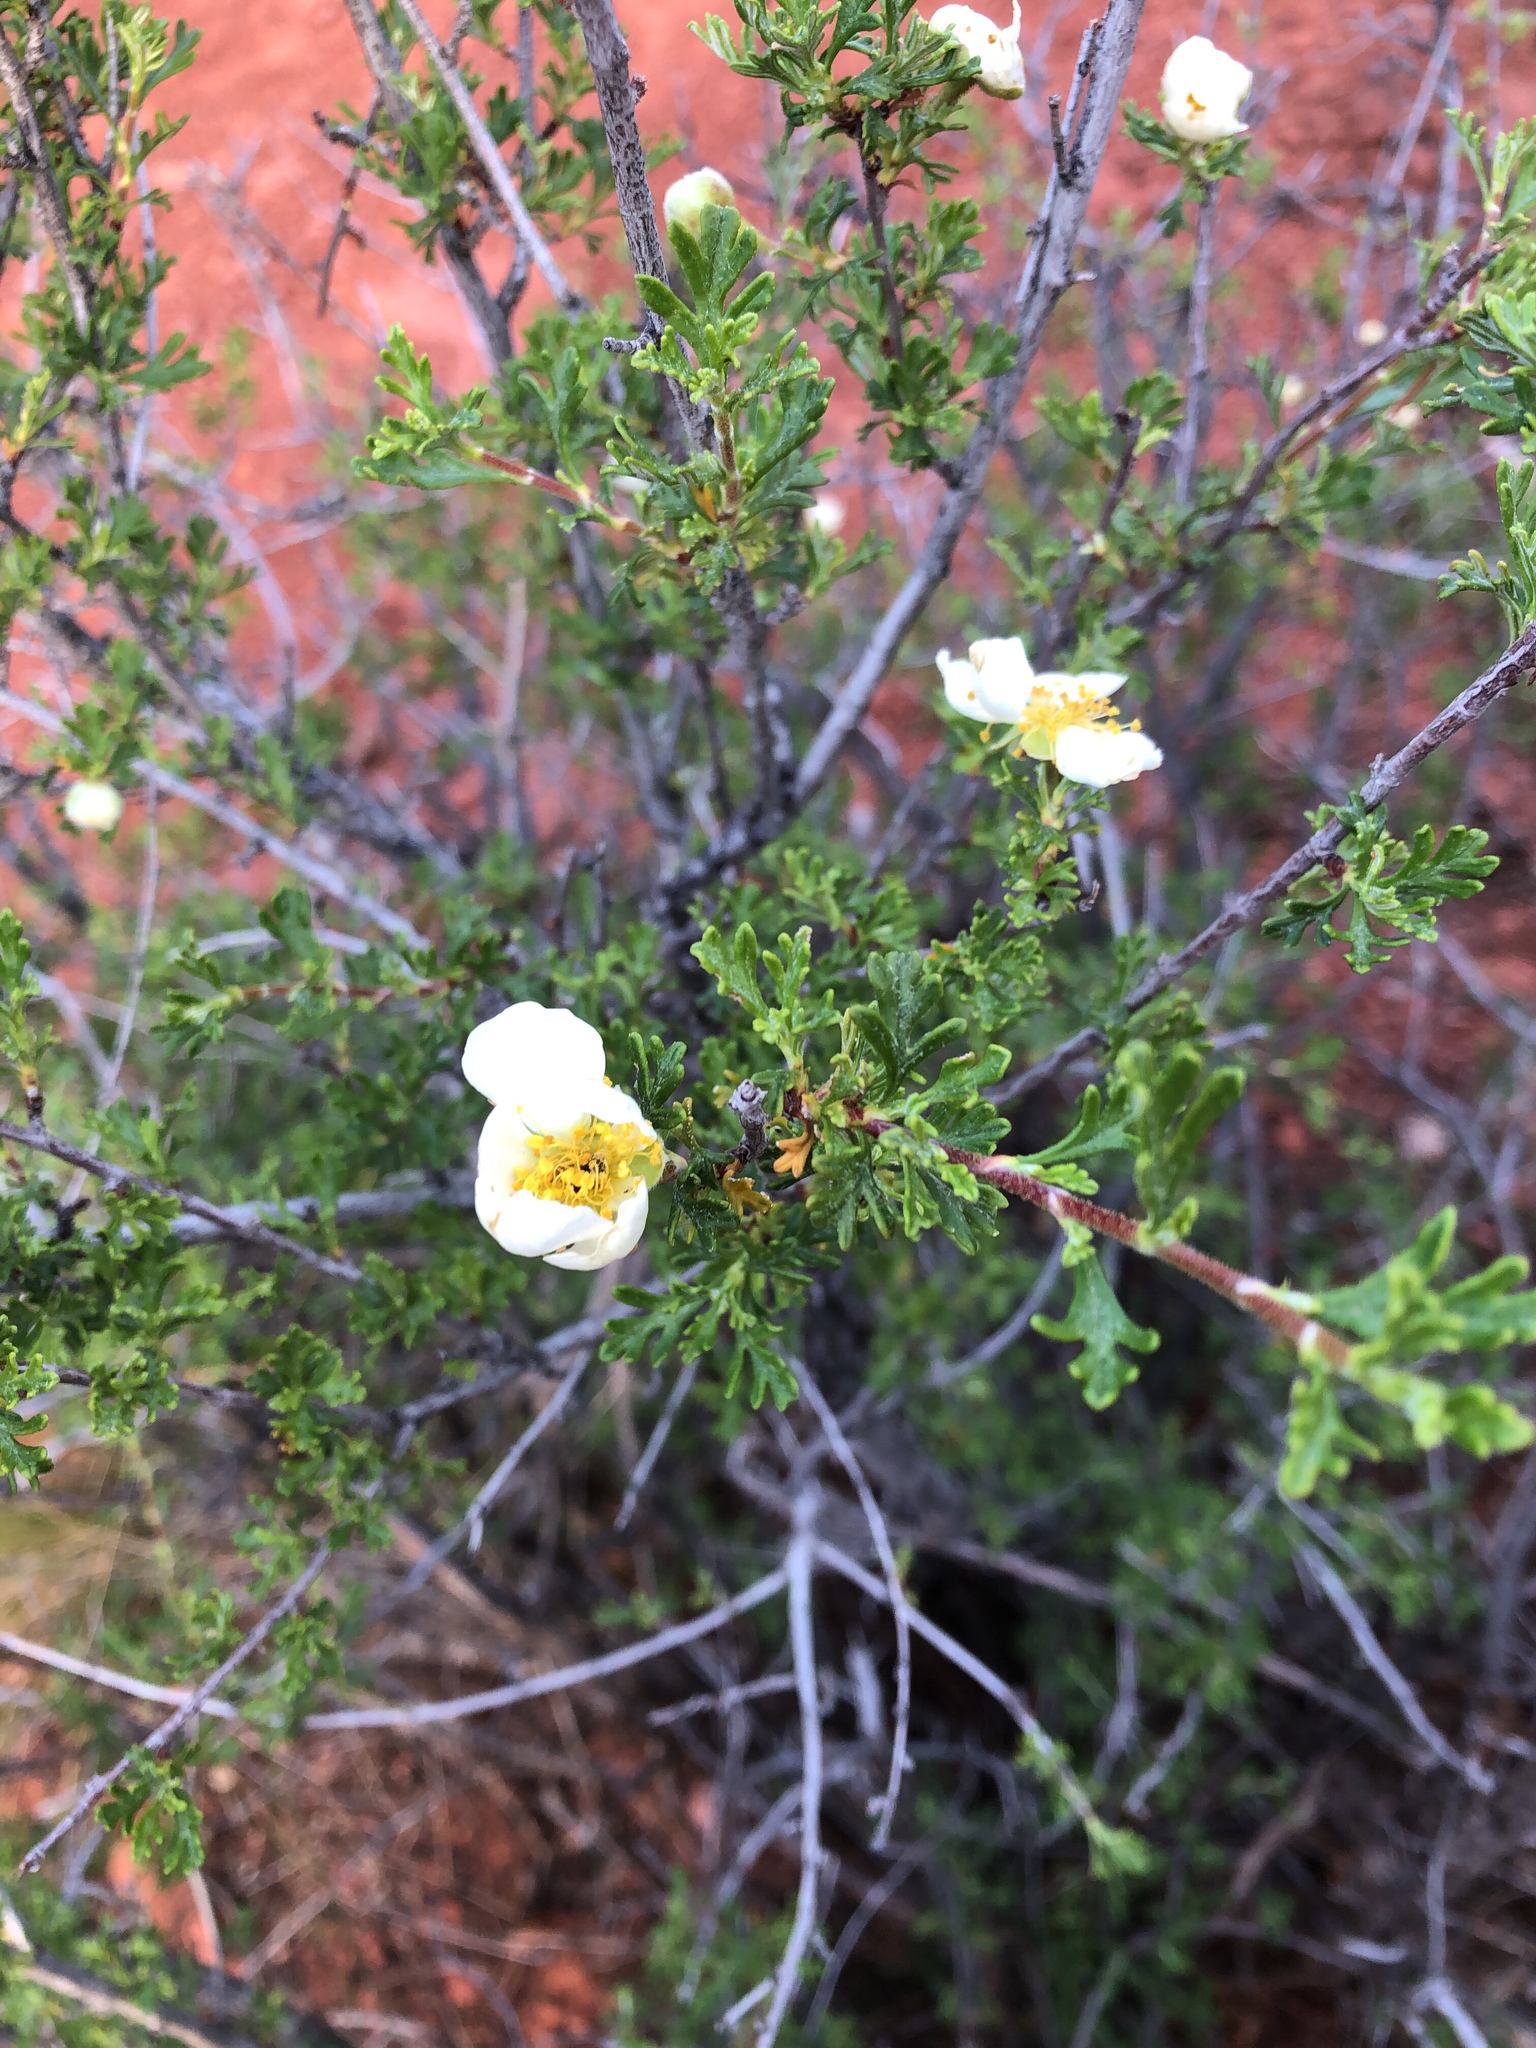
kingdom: Plantae
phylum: Tracheophyta
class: Magnoliopsida
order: Rosales
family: Rosaceae
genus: Purshia
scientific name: Purshia stansburiana
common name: Stansbury's cliffrose
